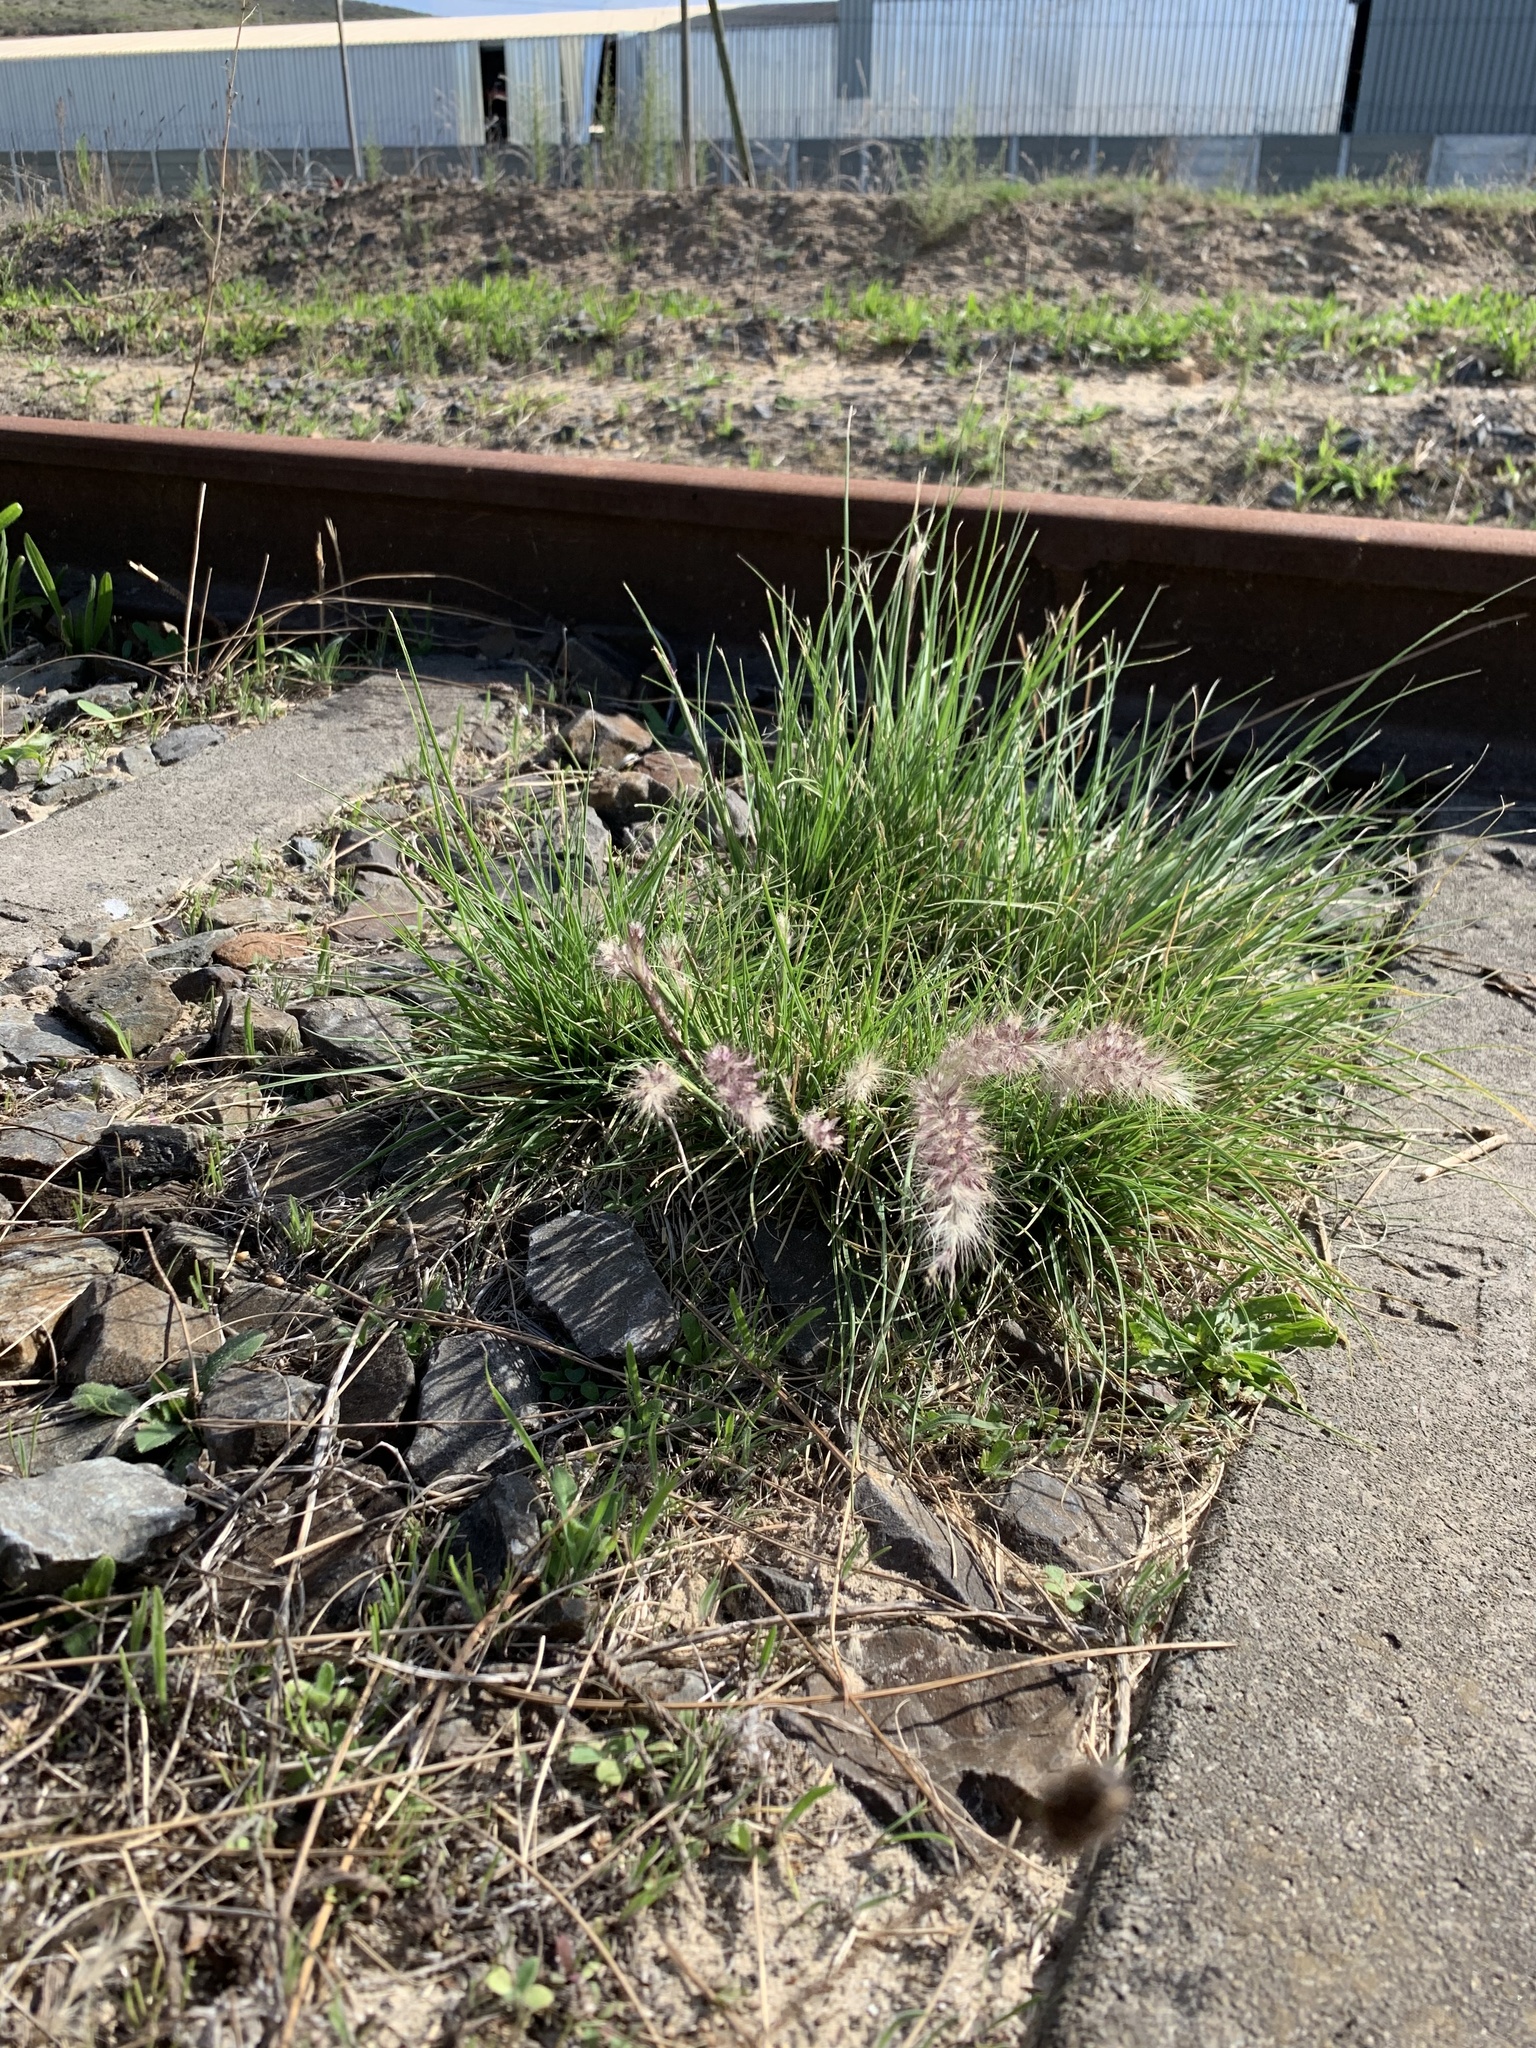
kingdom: Plantae
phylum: Tracheophyta
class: Liliopsida
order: Poales
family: Poaceae
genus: Cenchrus
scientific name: Cenchrus setaceus
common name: Crimson fountaingrass
